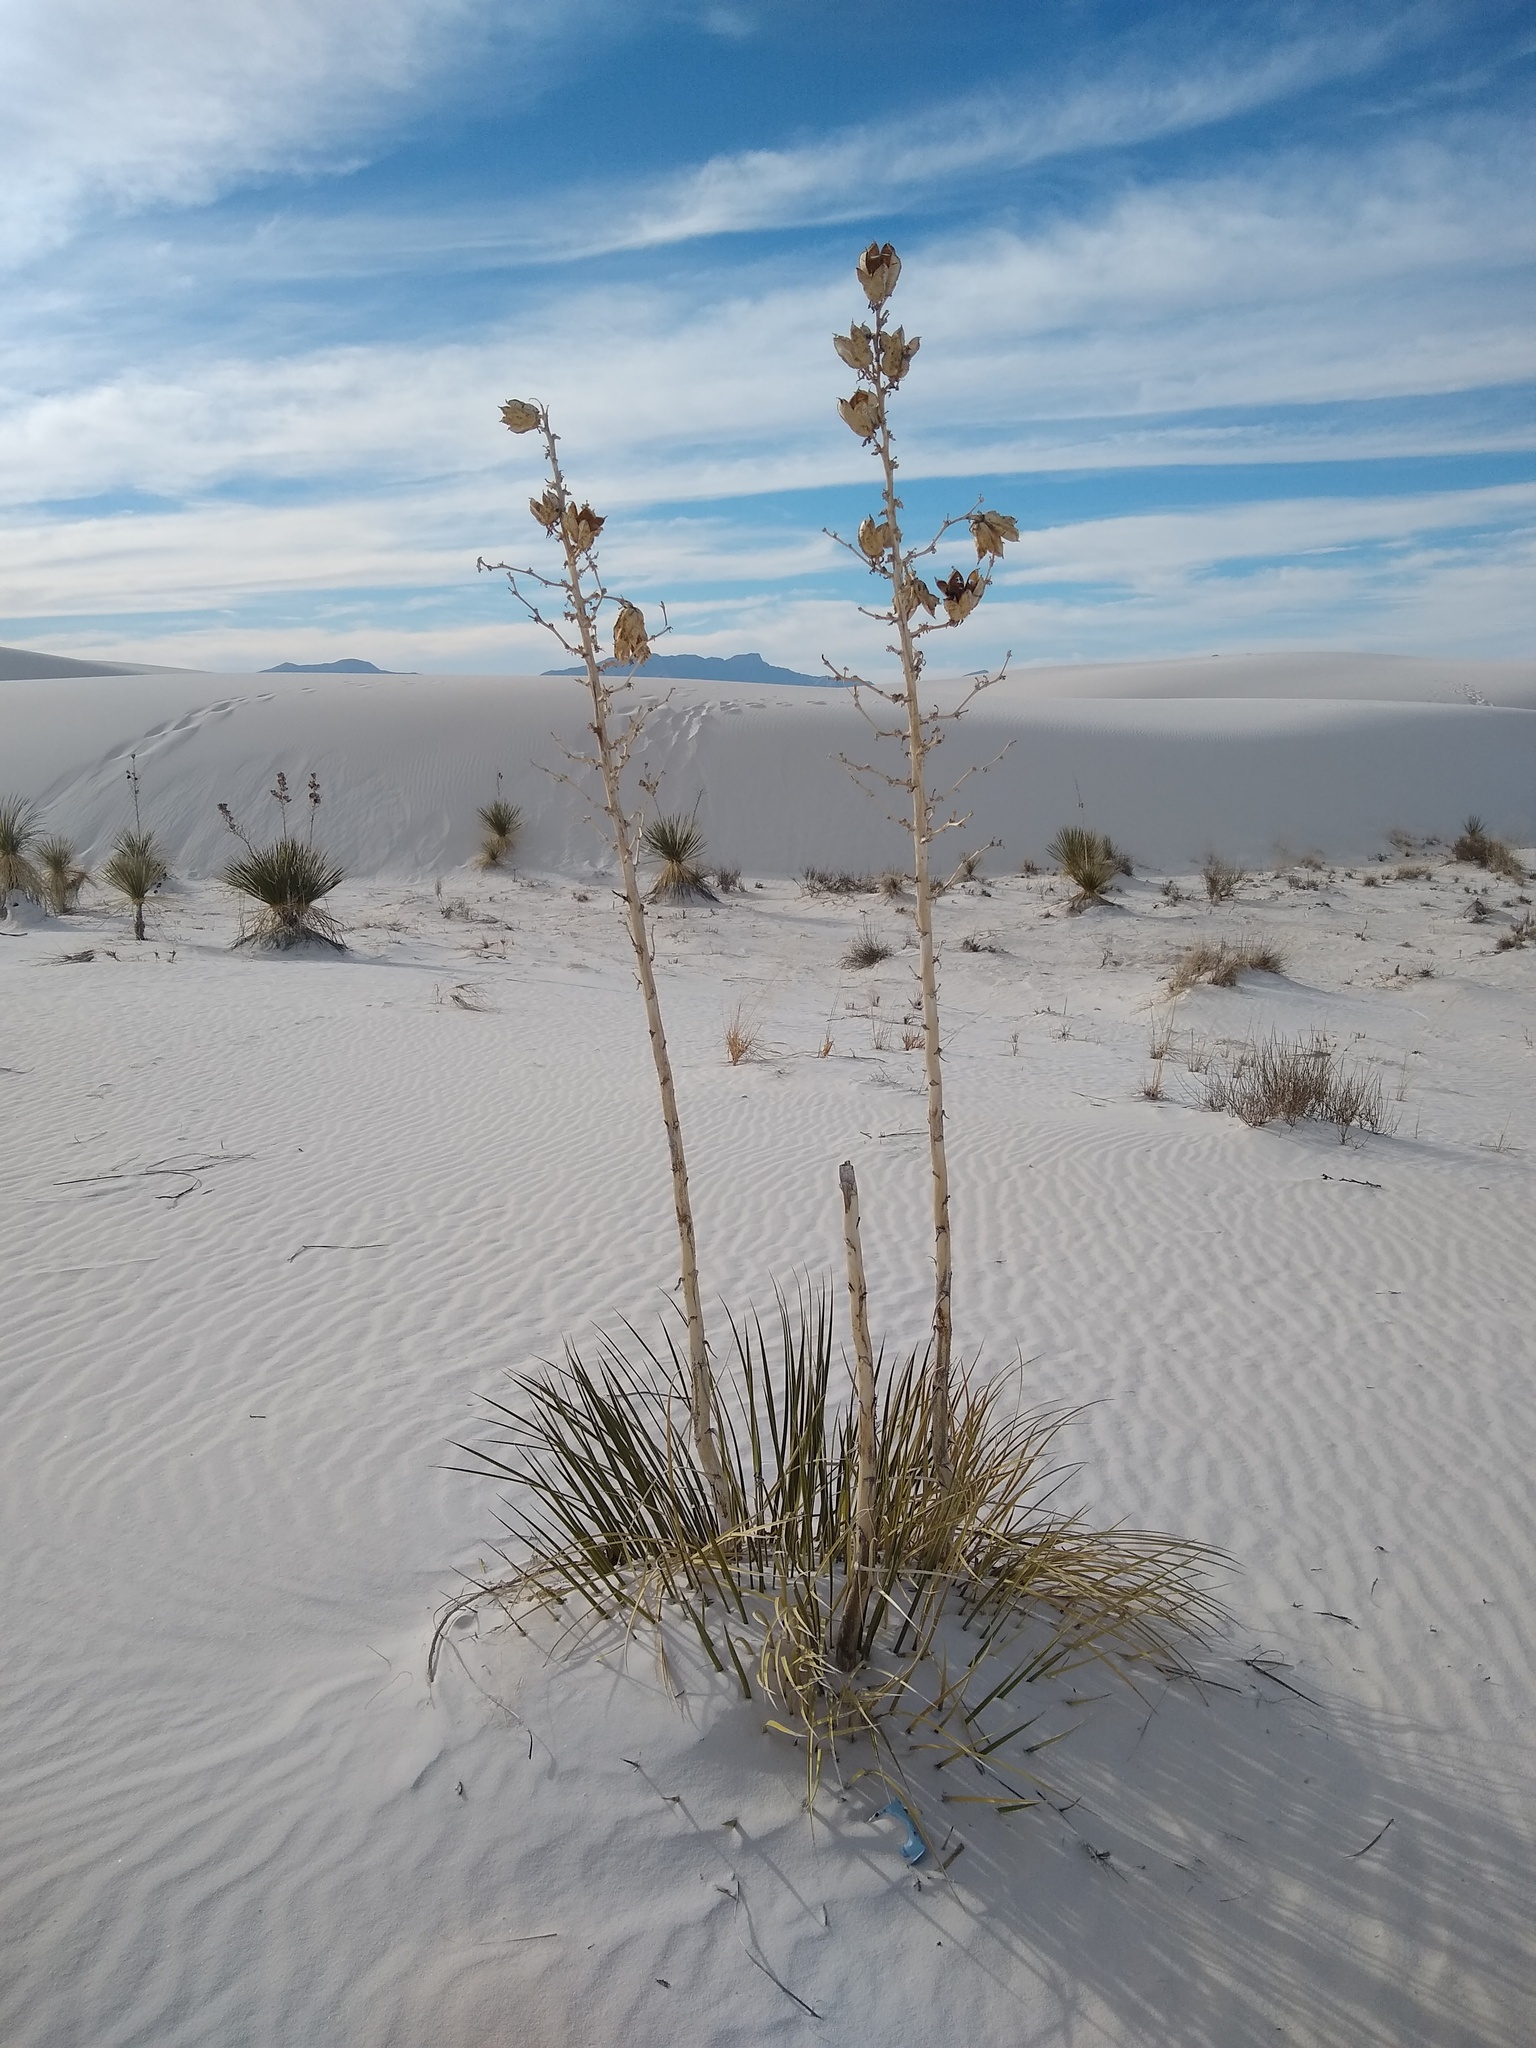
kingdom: Plantae
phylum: Tracheophyta
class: Liliopsida
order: Asparagales
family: Asparagaceae
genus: Yucca
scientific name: Yucca elata
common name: Palmella
